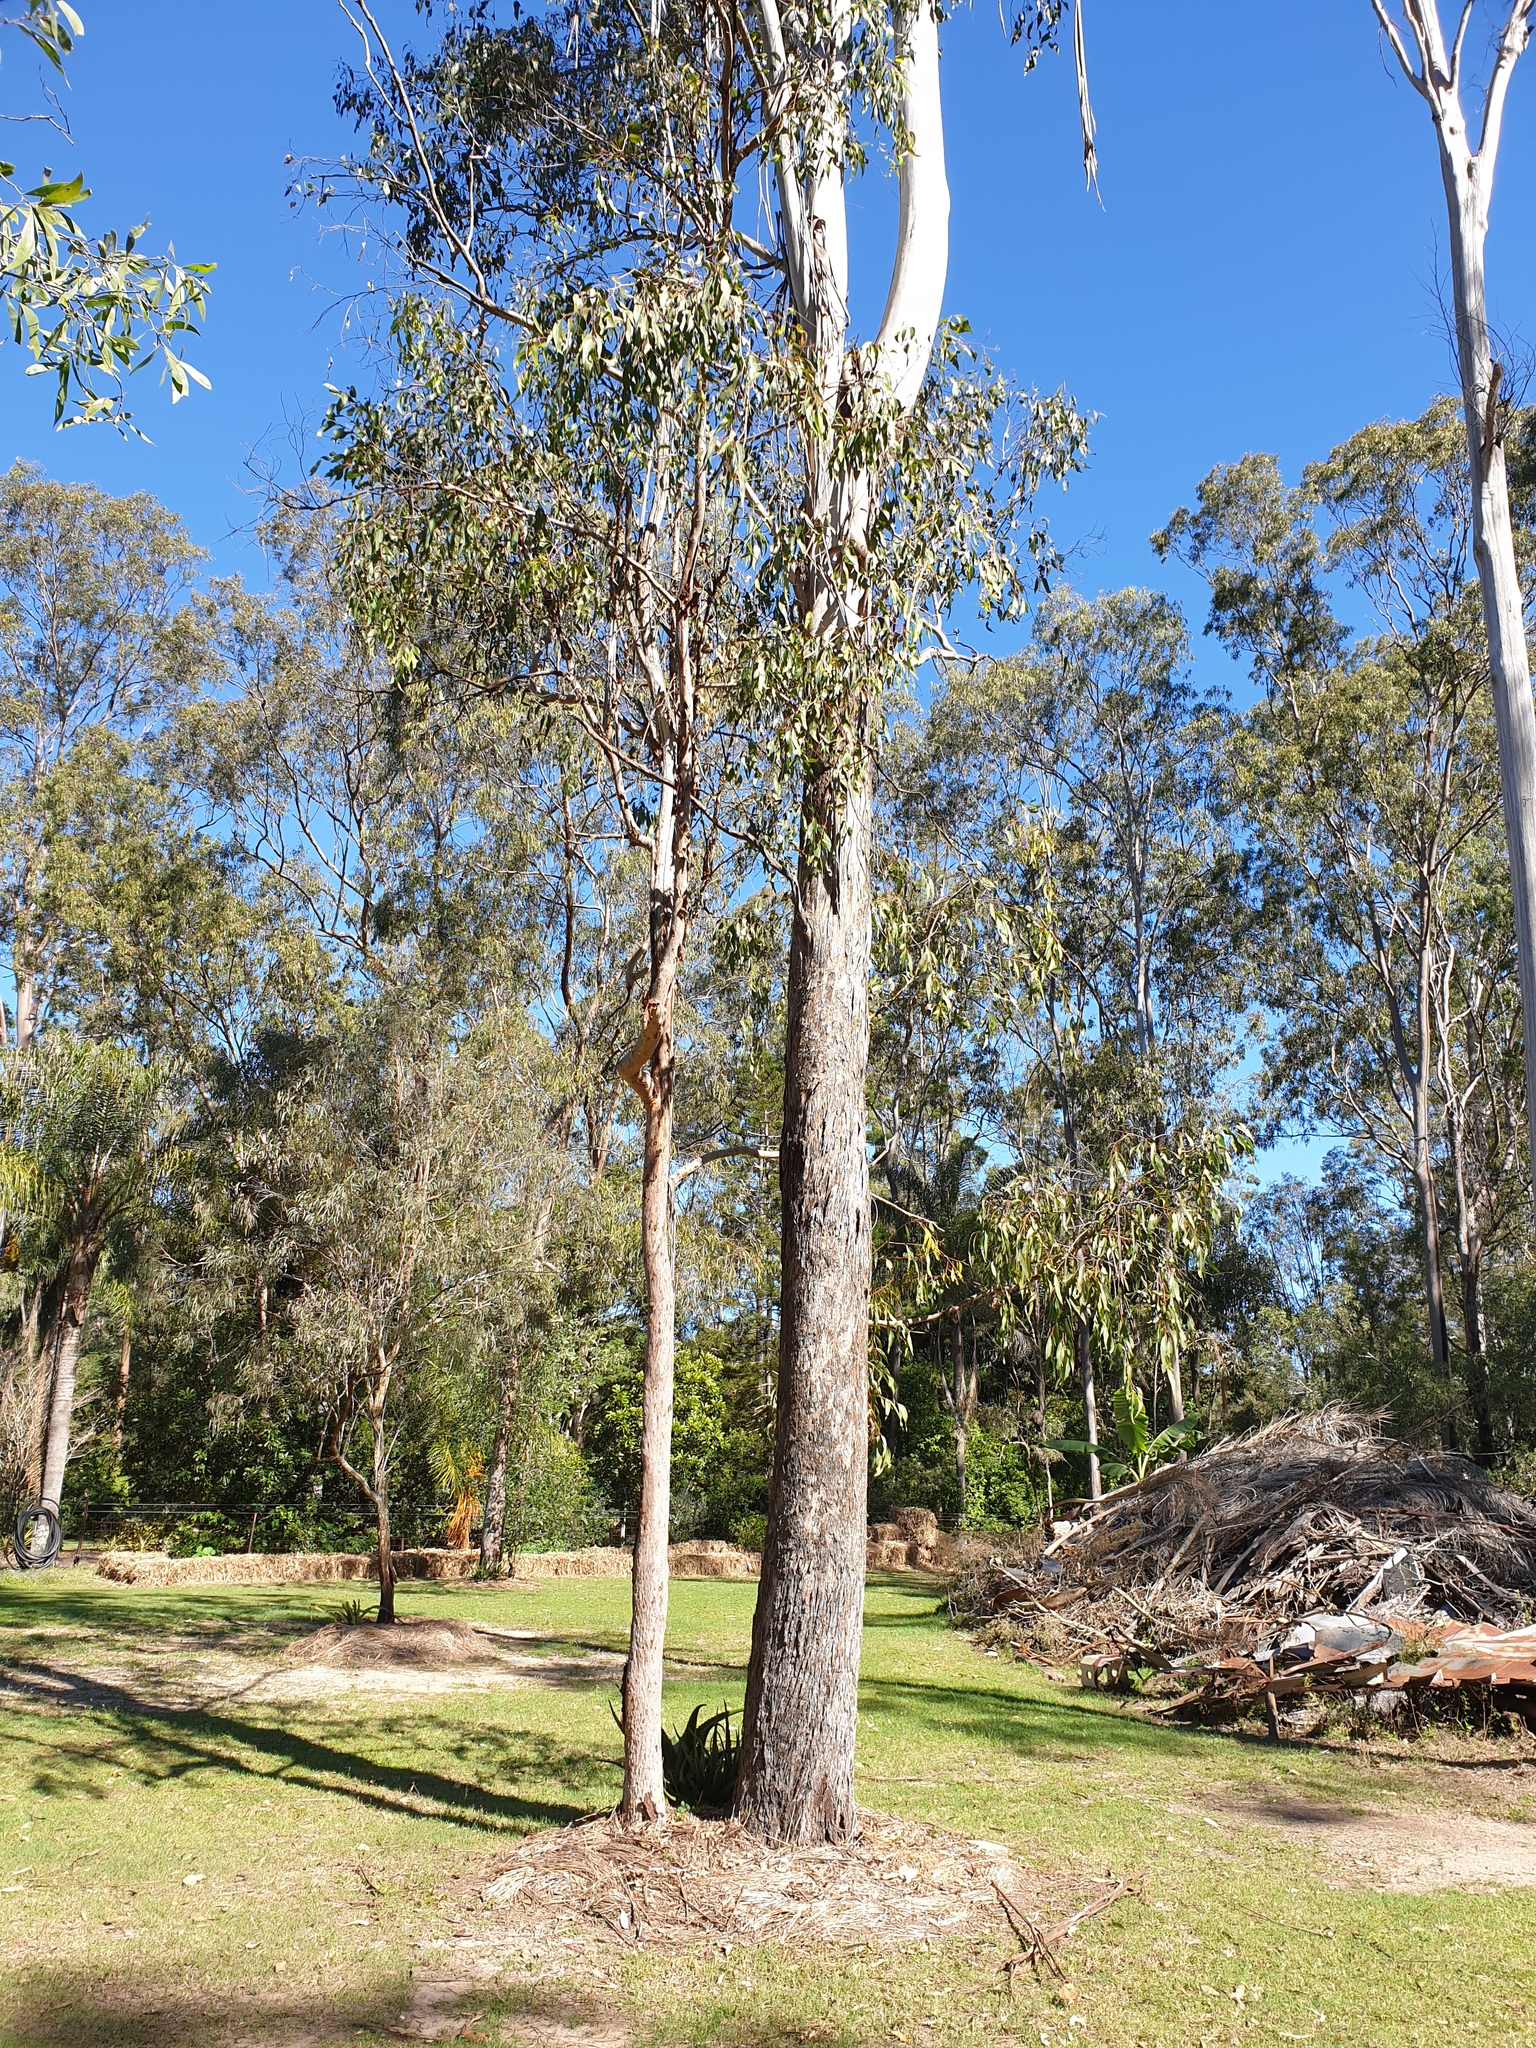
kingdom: Plantae
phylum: Tracheophyta
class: Magnoliopsida
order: Myrtales
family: Myrtaceae
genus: Eucalyptus
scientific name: Eucalyptus moluccana
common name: Grey-box
